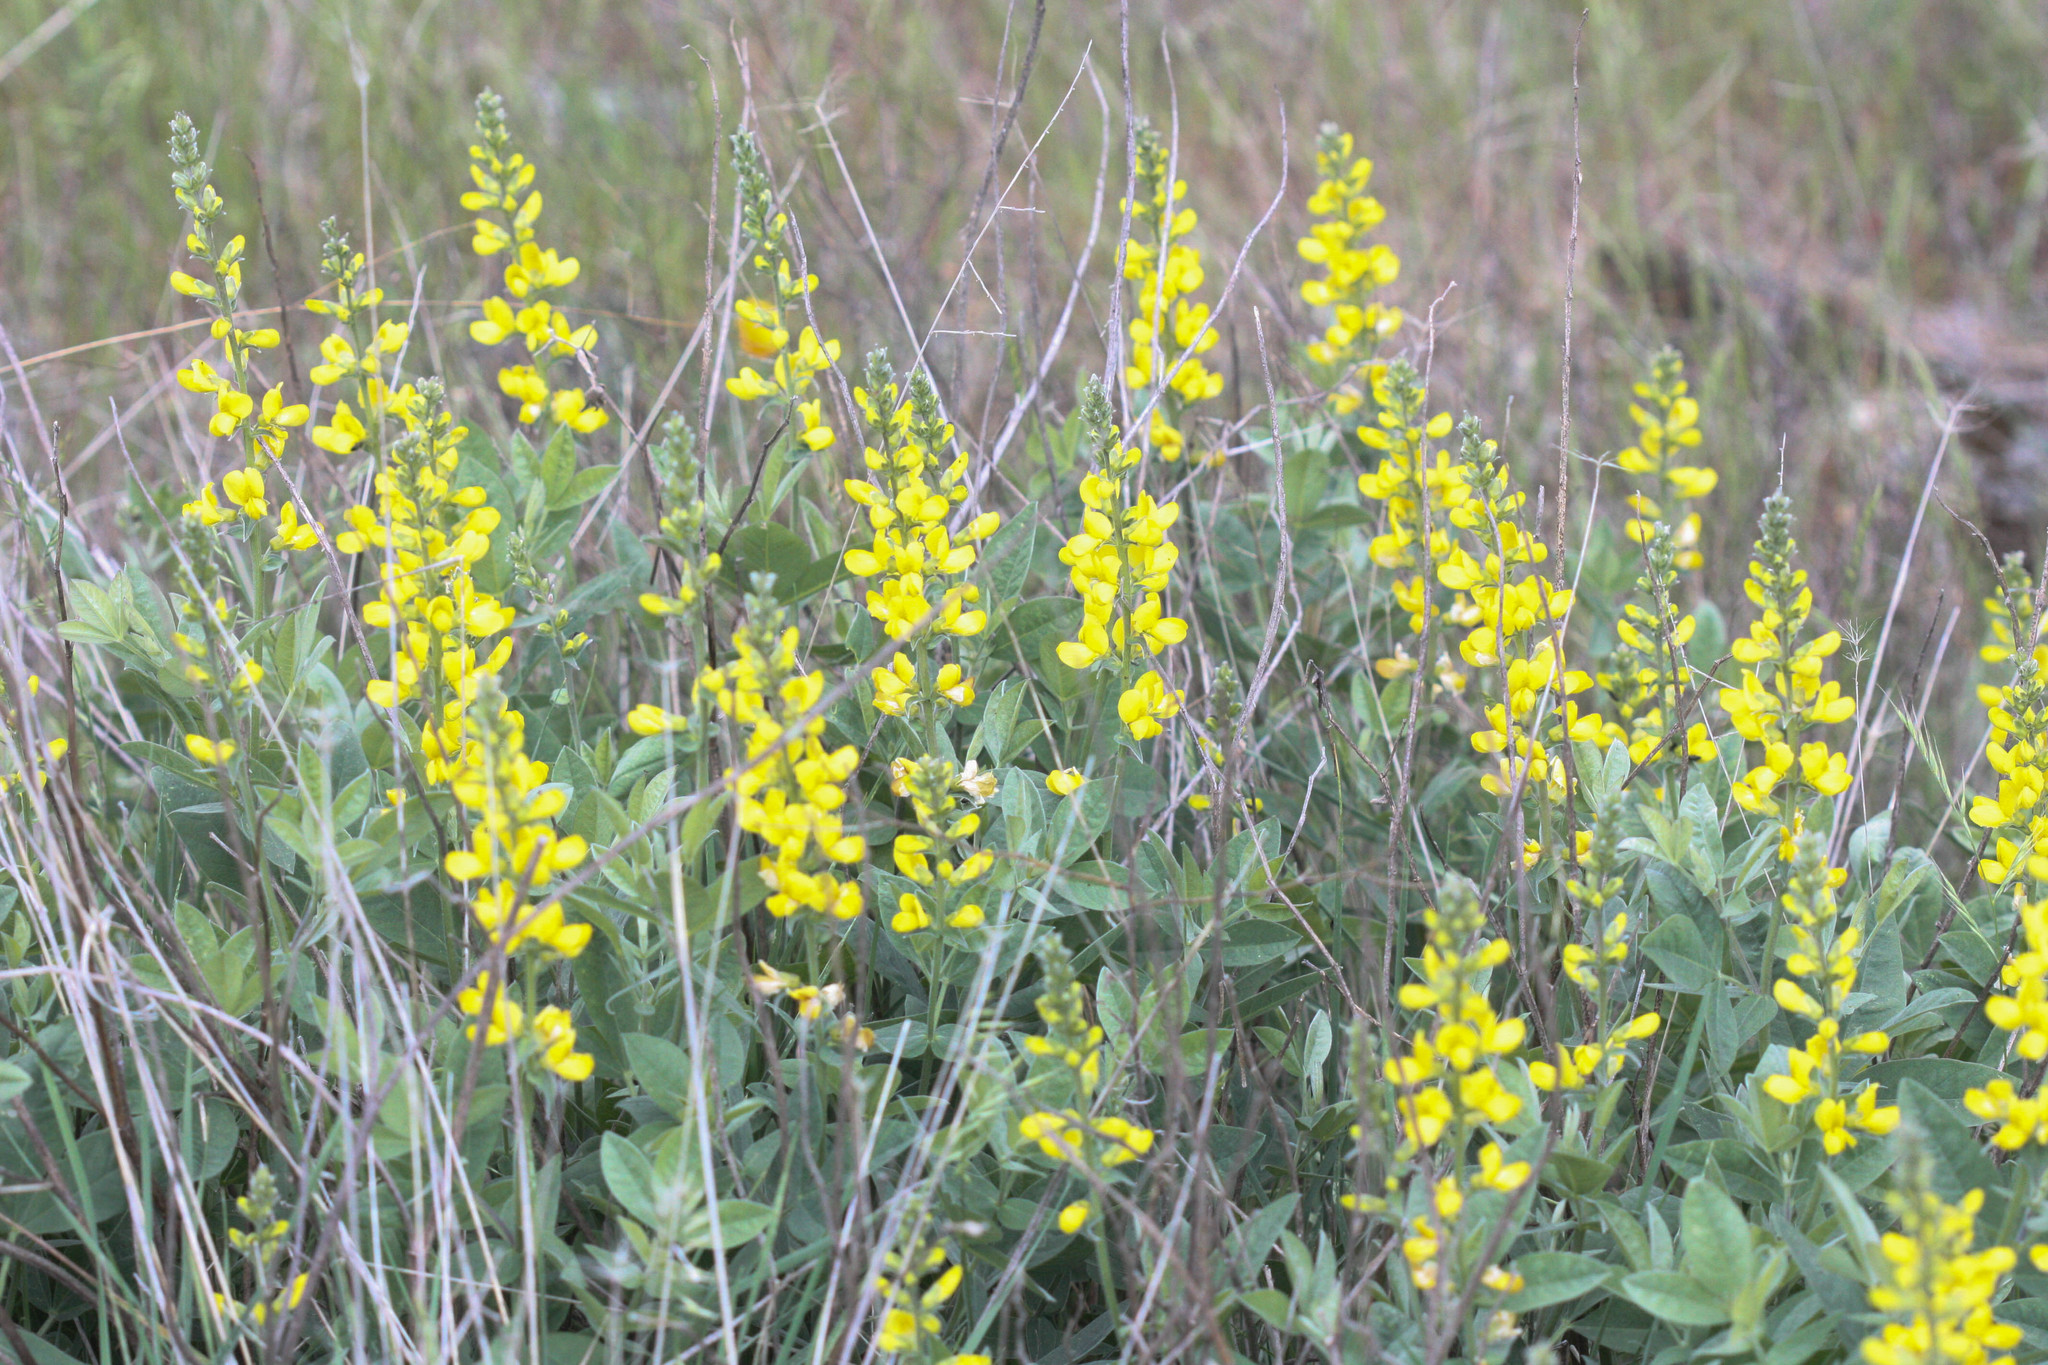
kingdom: Plantae
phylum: Tracheophyta
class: Magnoliopsida
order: Fabales
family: Fabaceae
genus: Thermopsis
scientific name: Thermopsis californica
